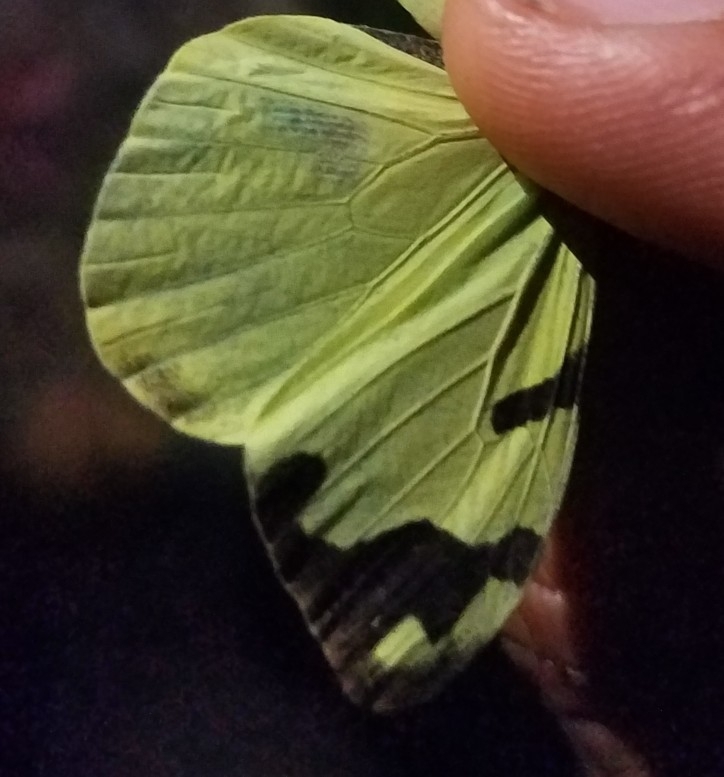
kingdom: Animalia
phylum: Arthropoda
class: Insecta
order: Lepidoptera
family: Pieridae
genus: Enantia
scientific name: Enantia jethys
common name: Jethys mimic-white
